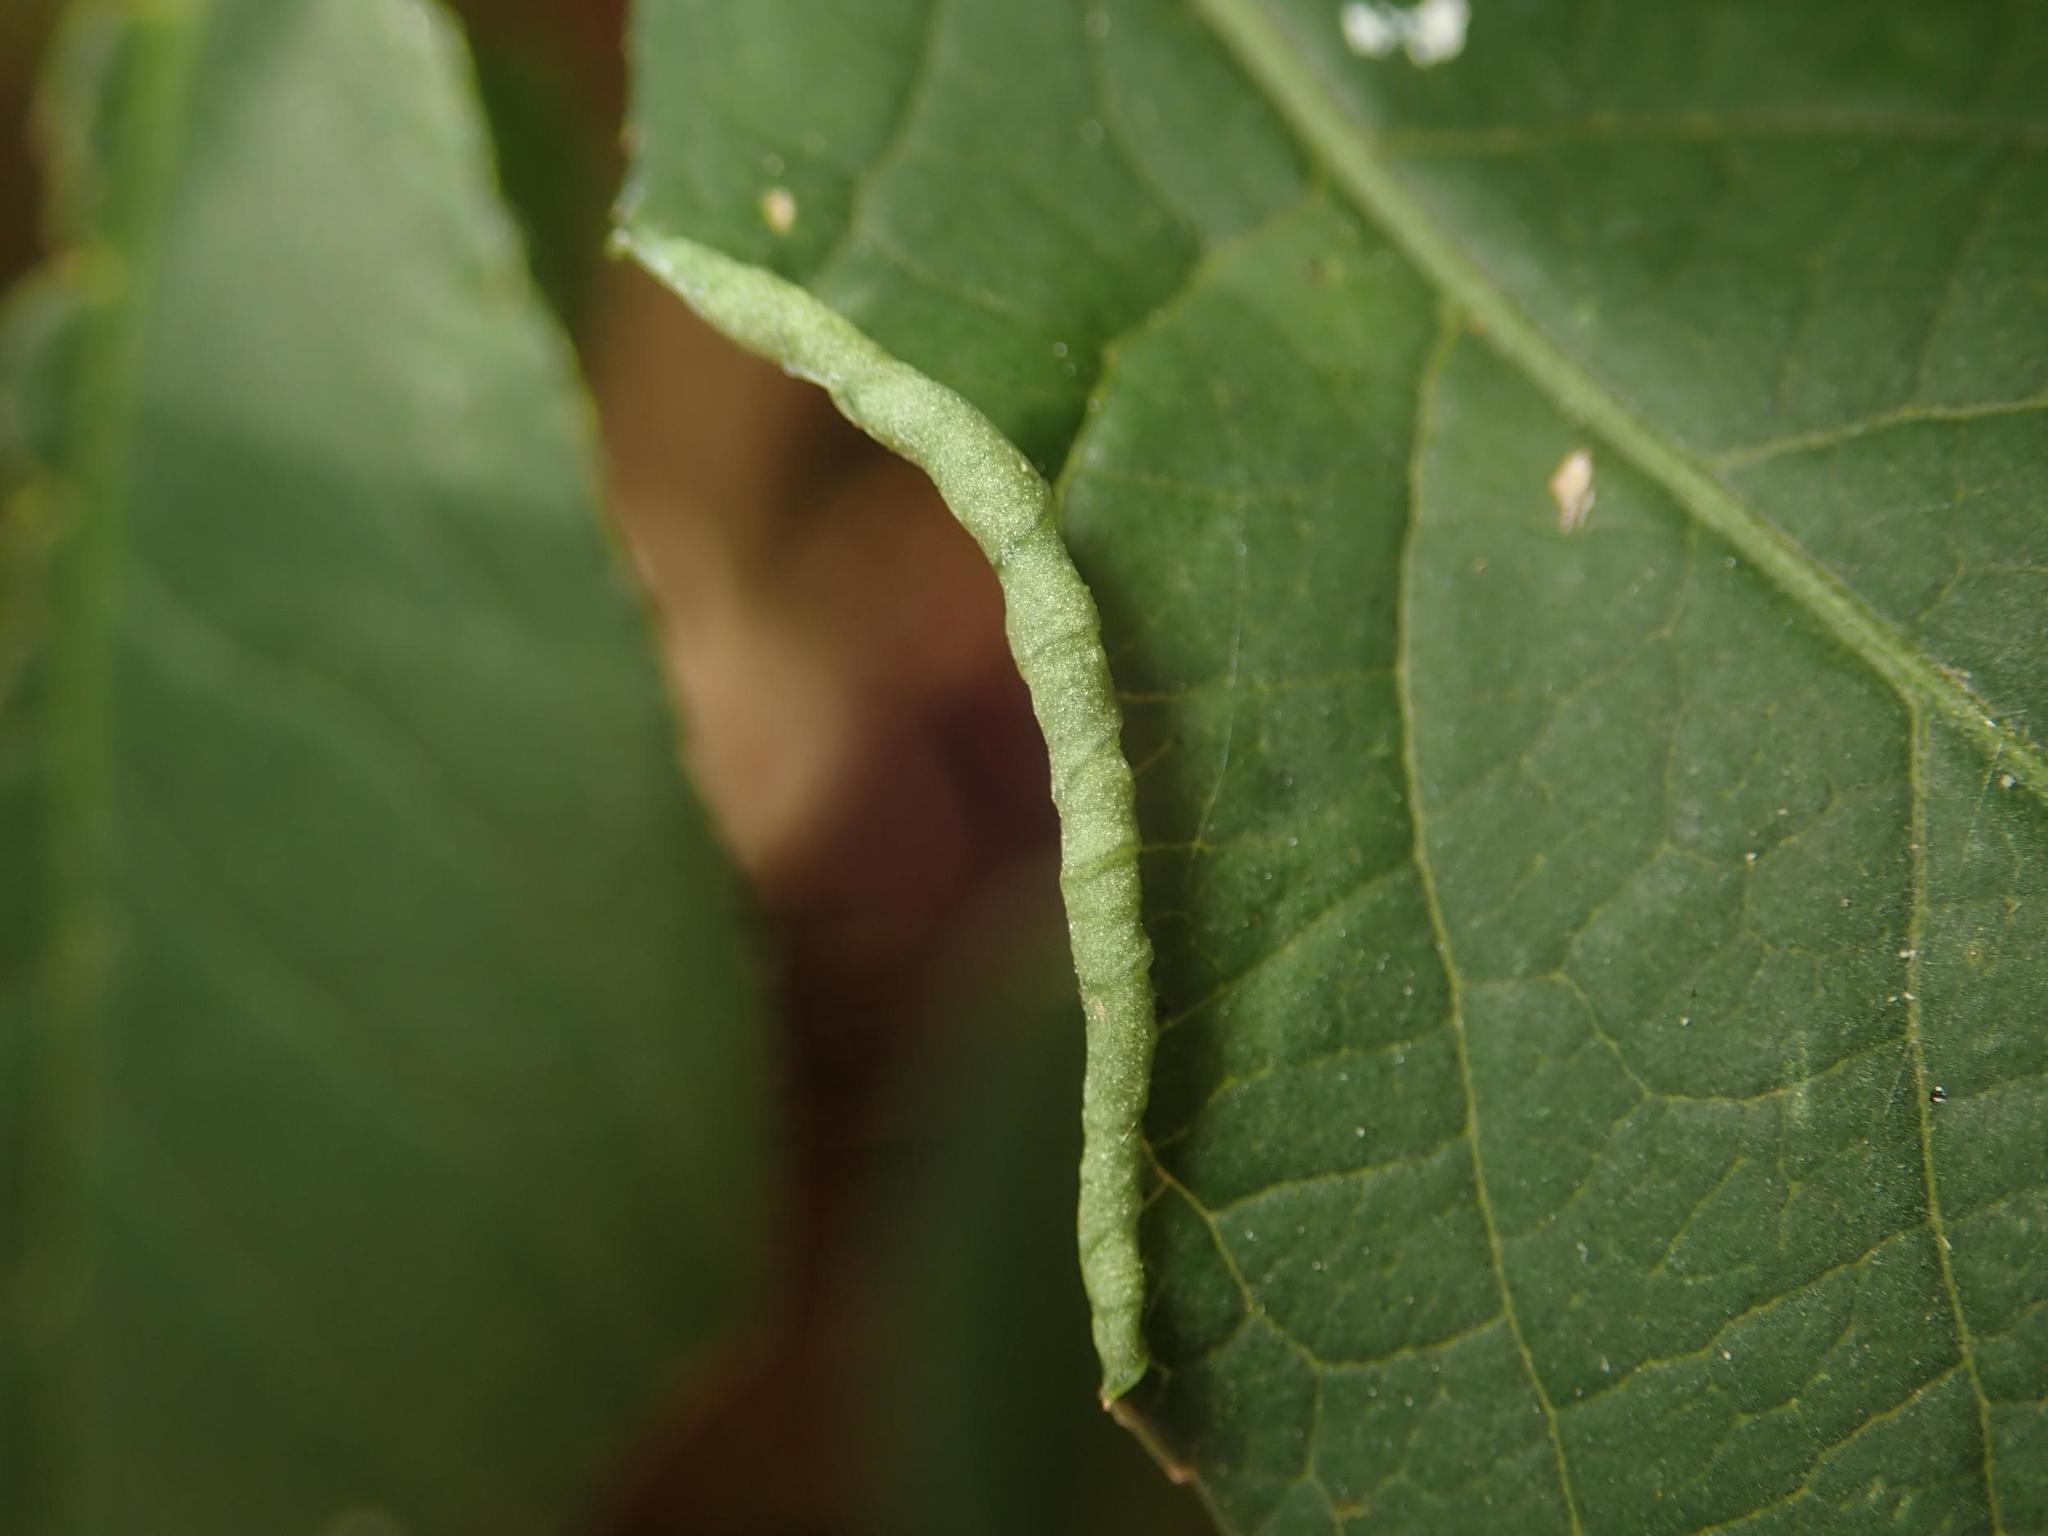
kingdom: Animalia
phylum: Arthropoda
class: Arachnida
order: Trombidiformes
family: Eriophyidae
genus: Stenacis
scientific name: Stenacis evonymi
